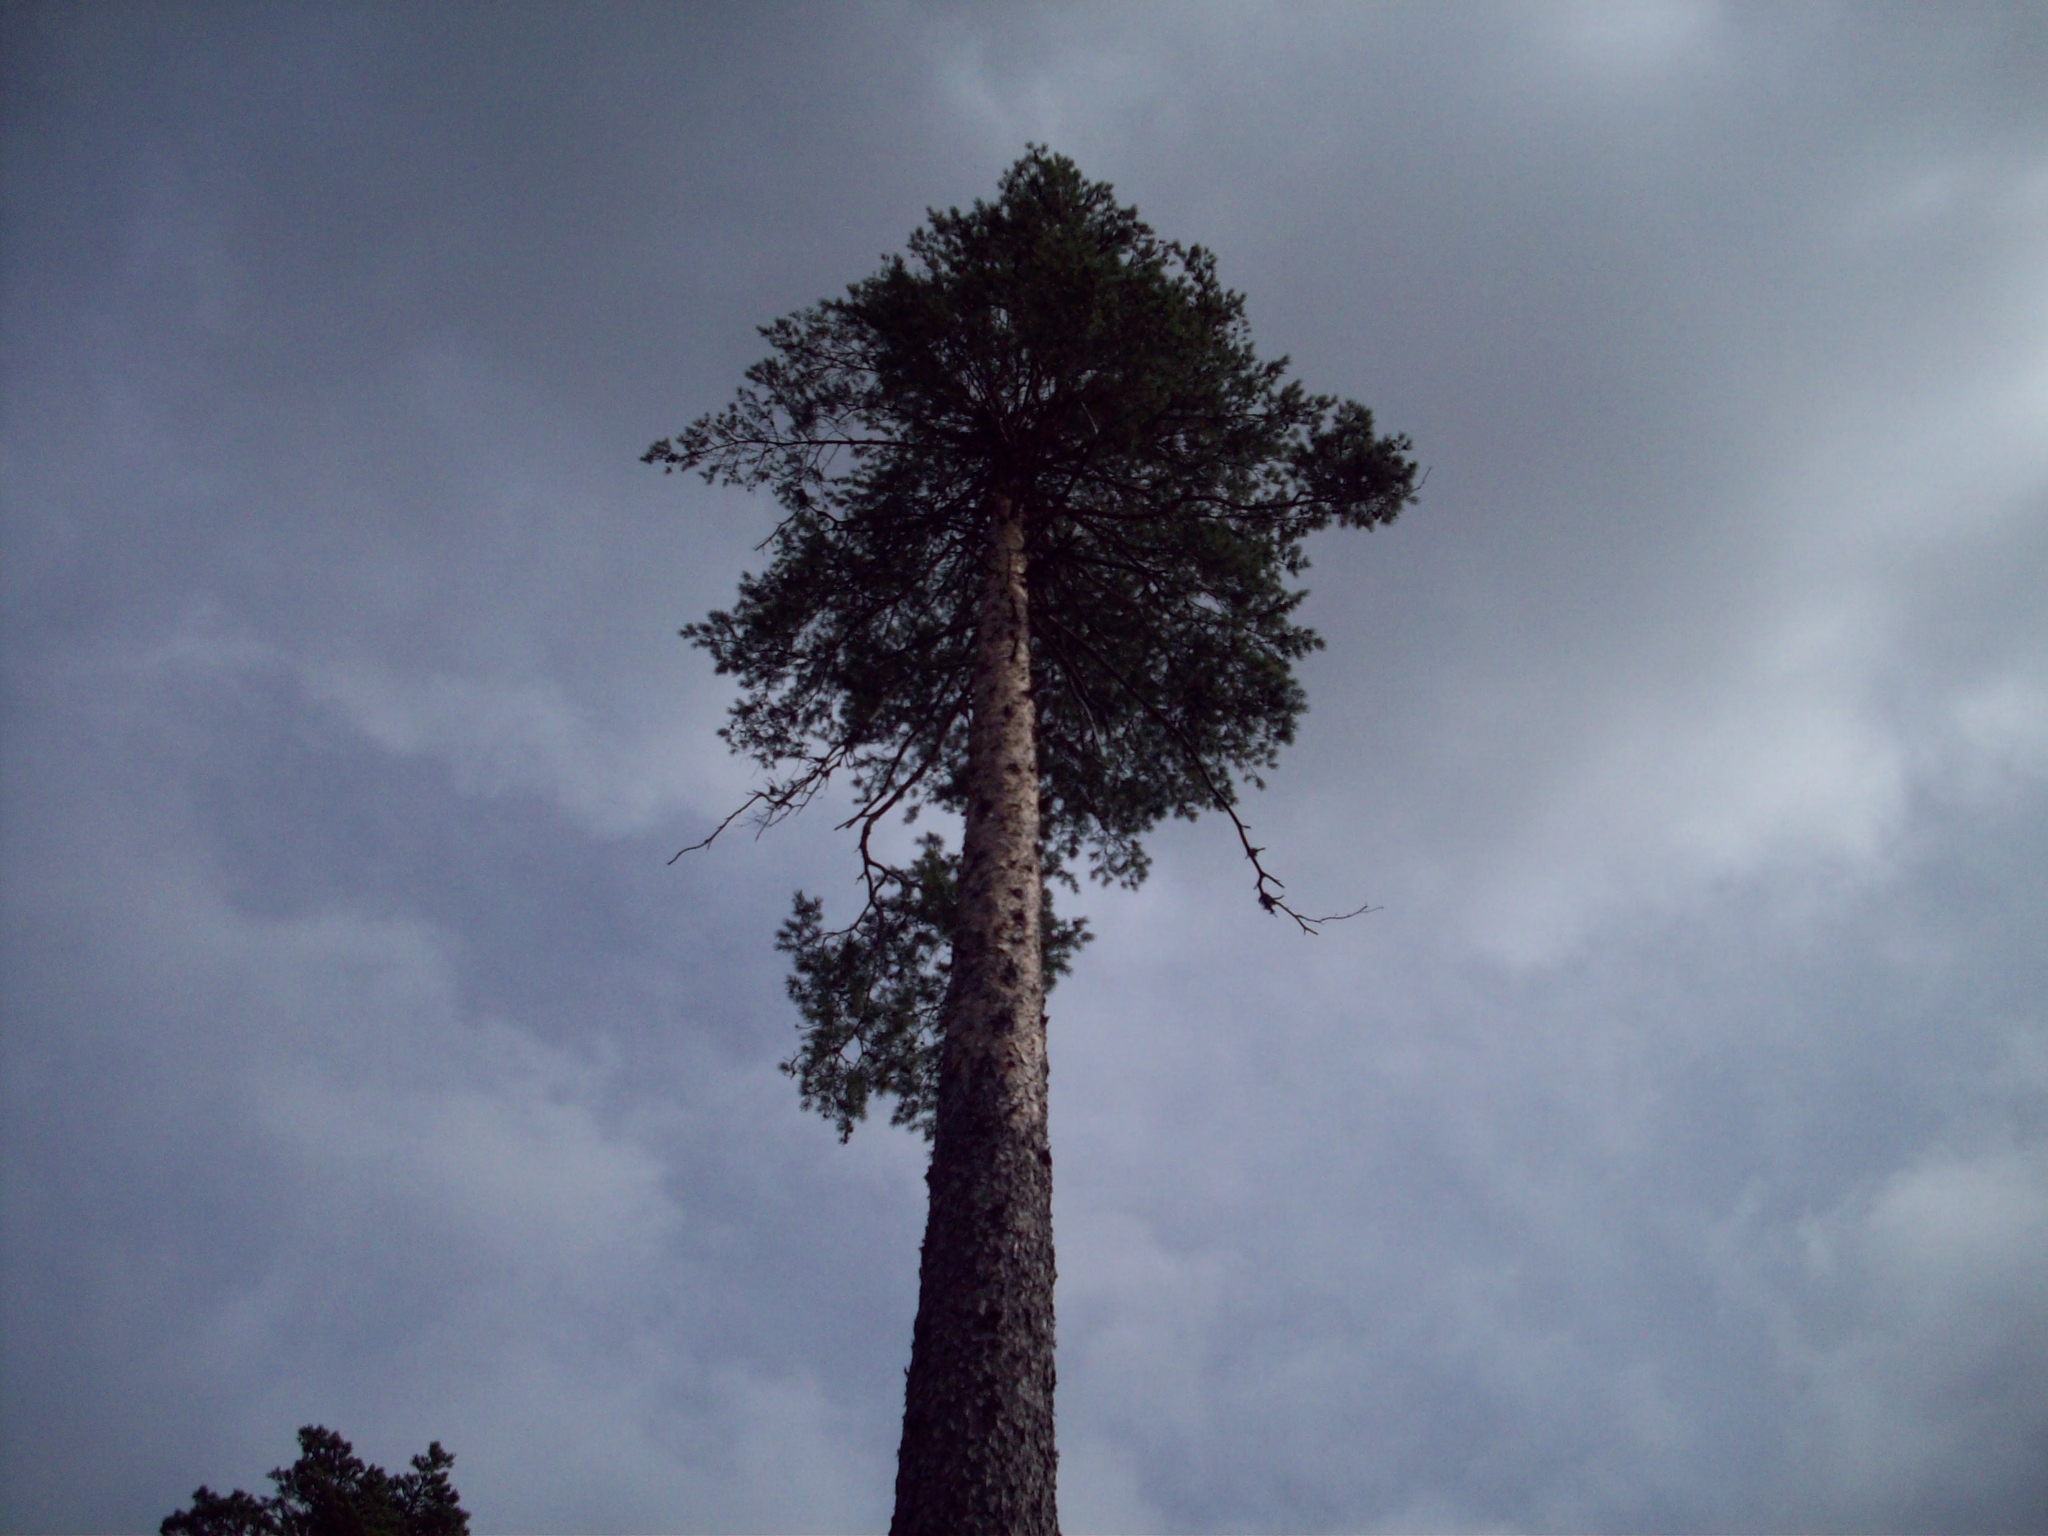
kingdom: Plantae
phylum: Tracheophyta
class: Pinopsida
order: Pinales
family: Pinaceae
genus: Pinus
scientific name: Pinus sylvestris
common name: Scots pine
